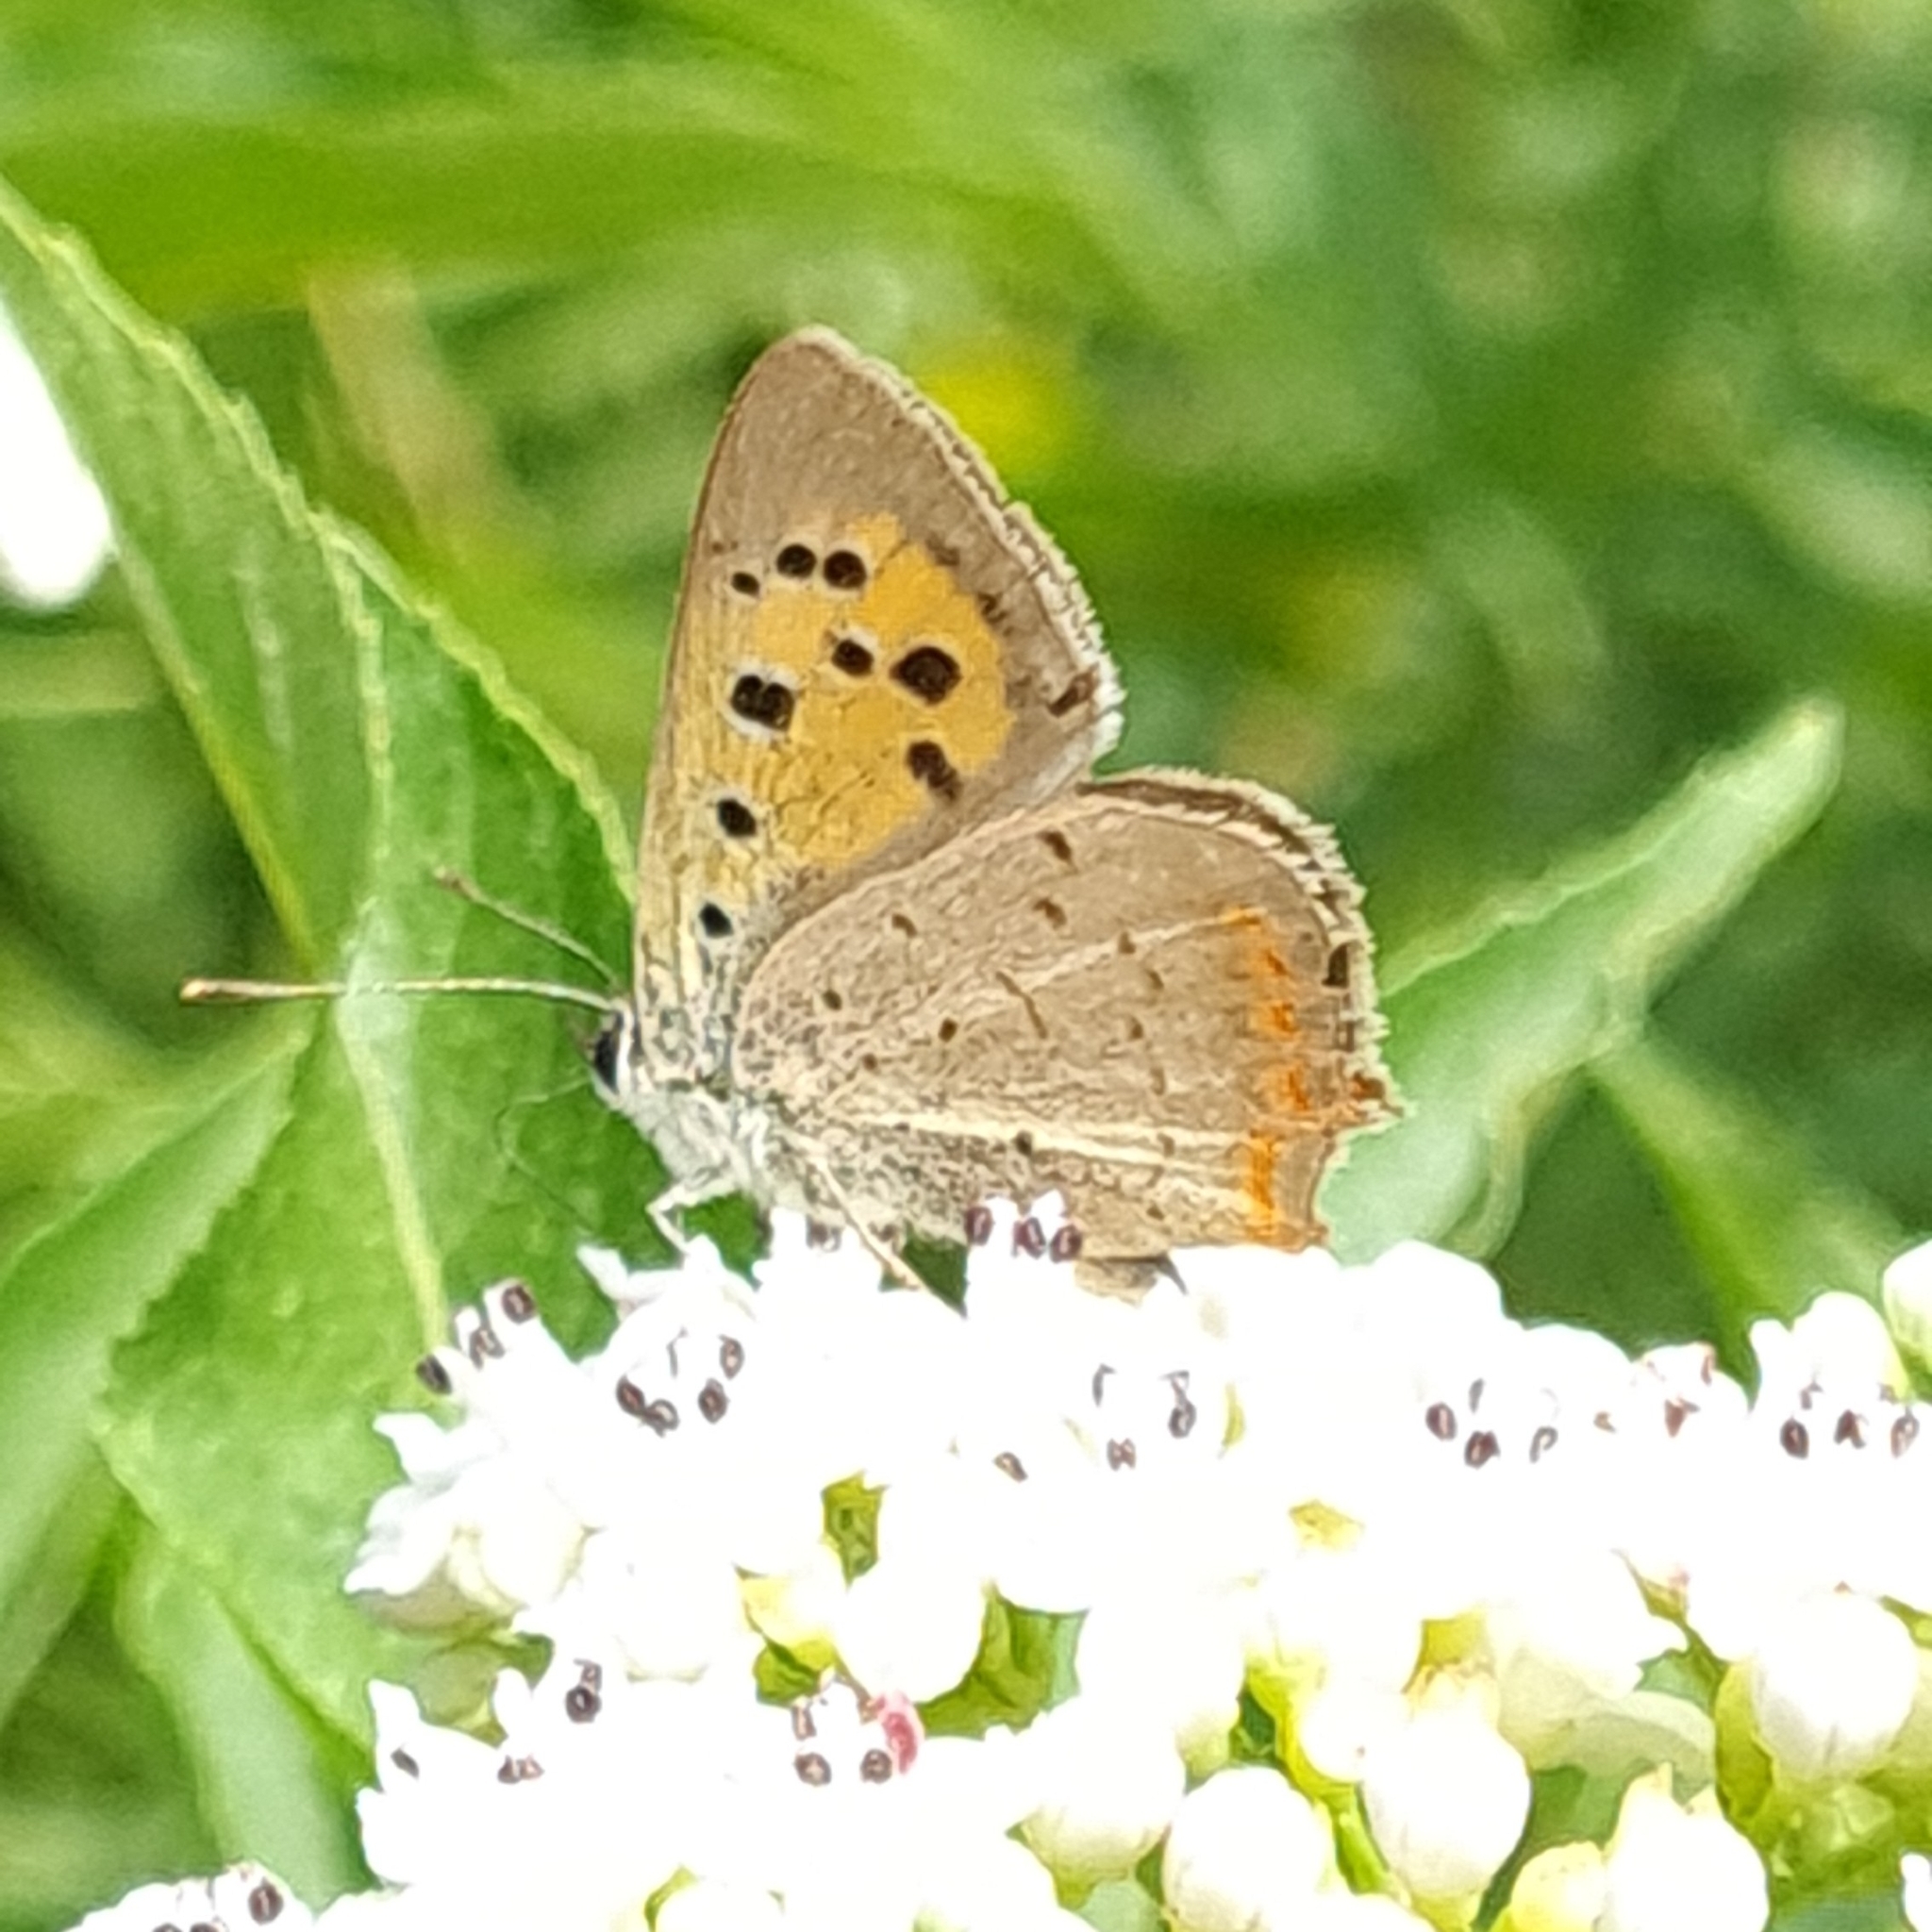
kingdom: Animalia
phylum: Arthropoda
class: Insecta
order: Lepidoptera
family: Lycaenidae
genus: Lycaena
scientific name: Lycaena phlaeas
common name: Small copper
